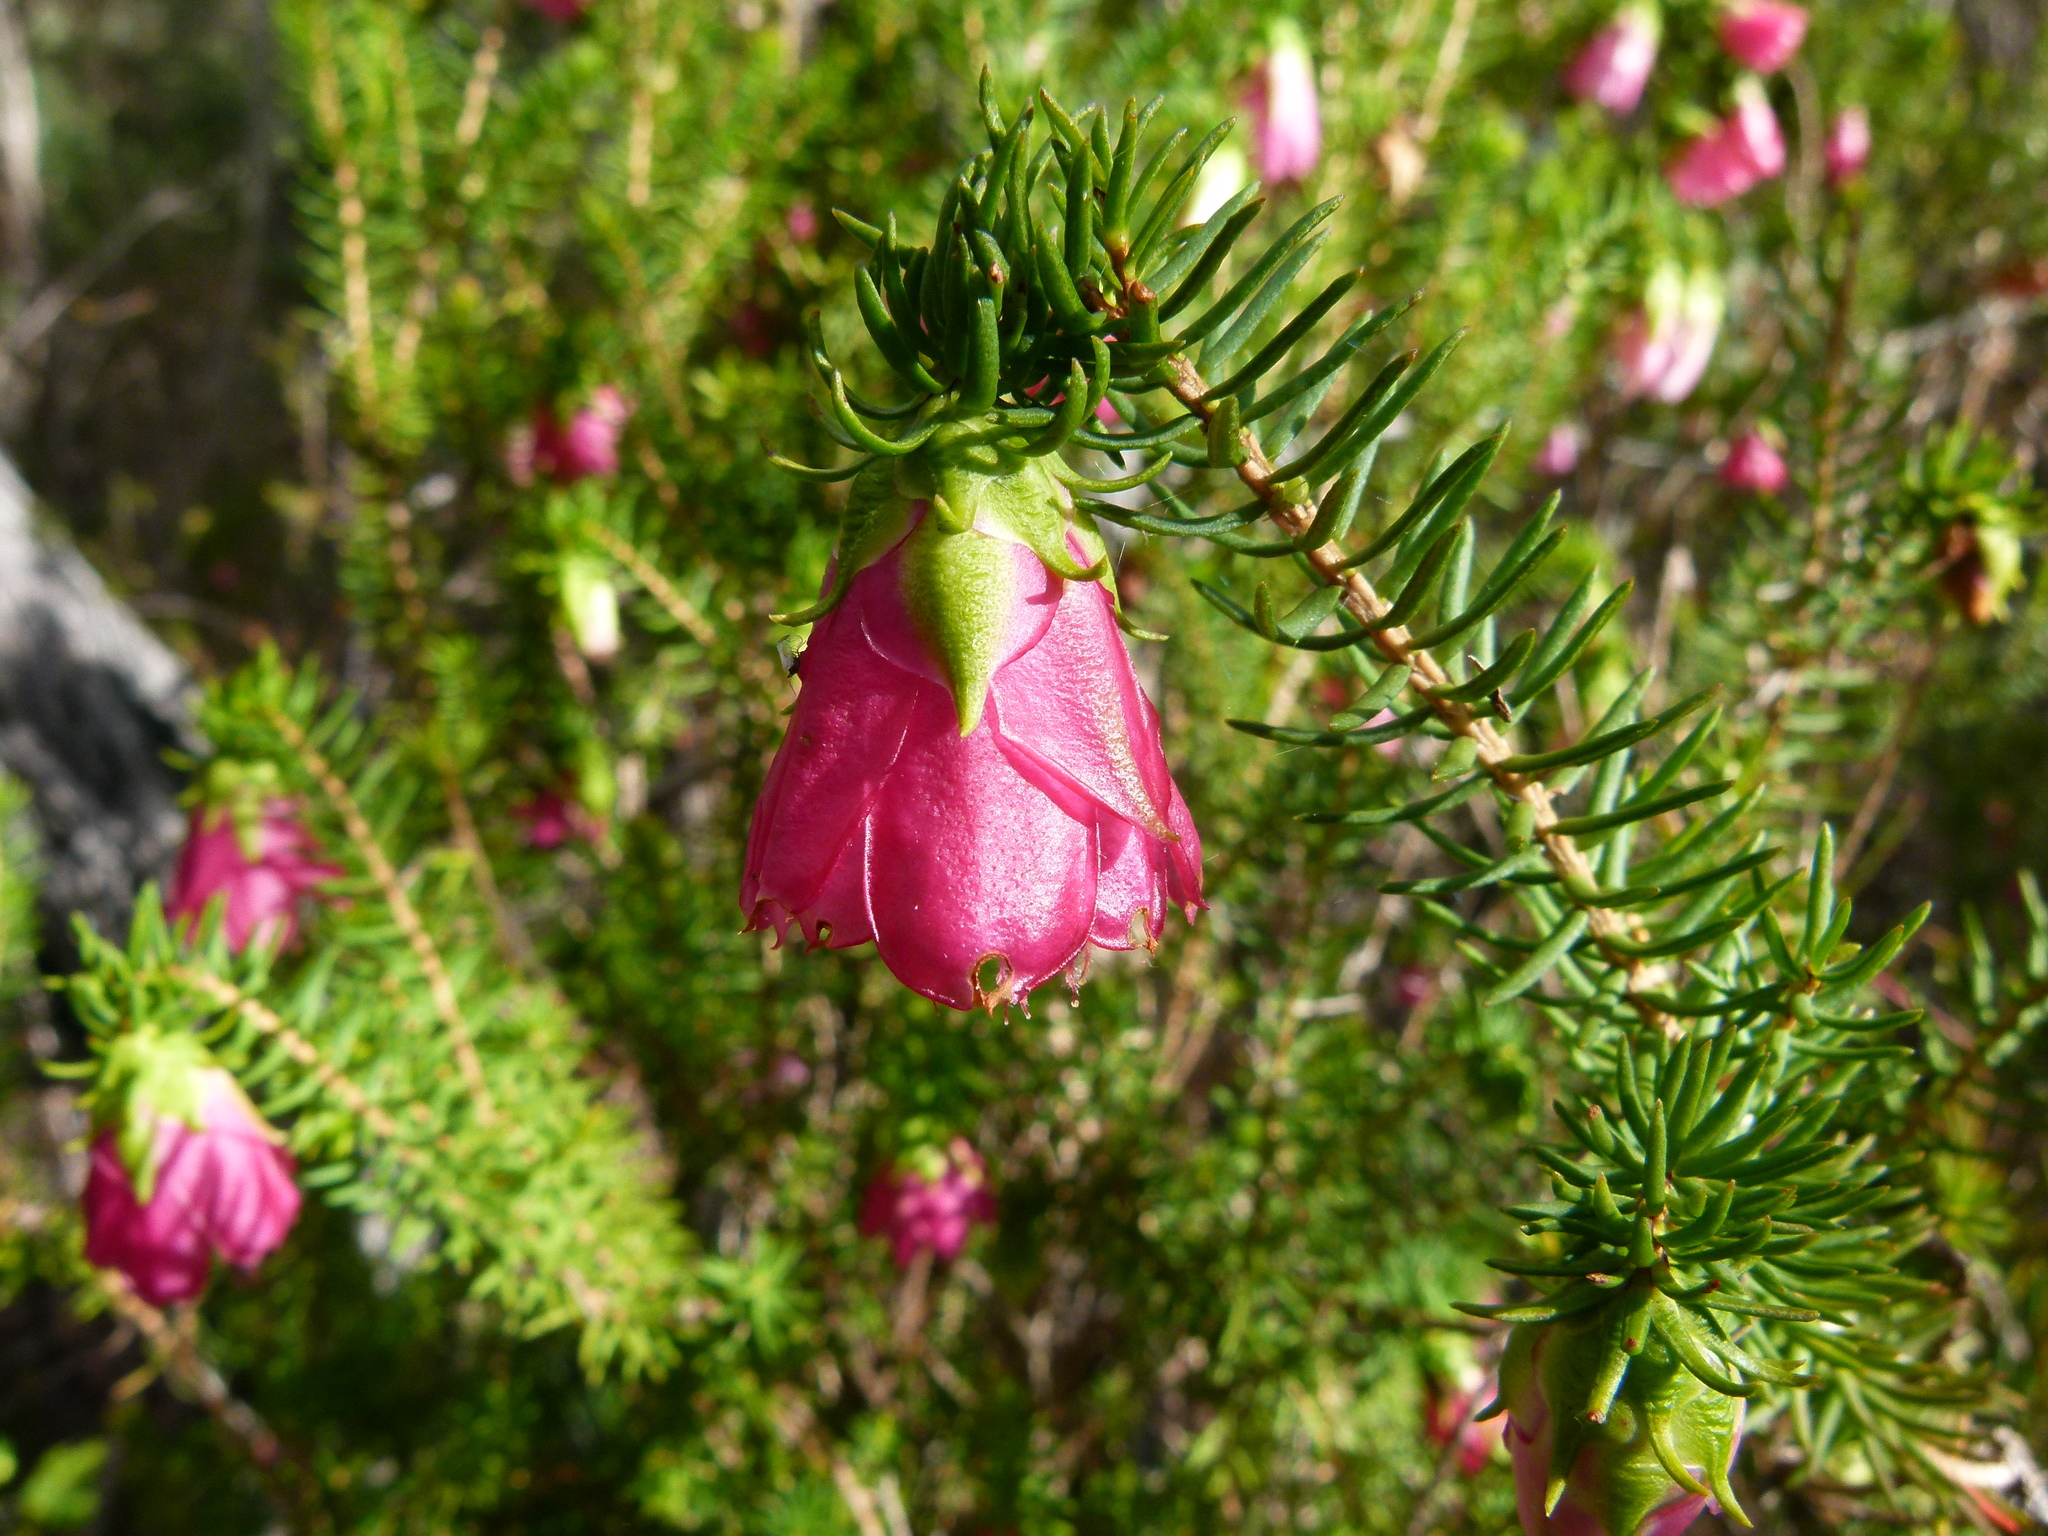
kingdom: Plantae
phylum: Tracheophyta
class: Magnoliopsida
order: Myrtales
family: Myrtaceae
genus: Darwinia
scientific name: Darwinia lejostyla
